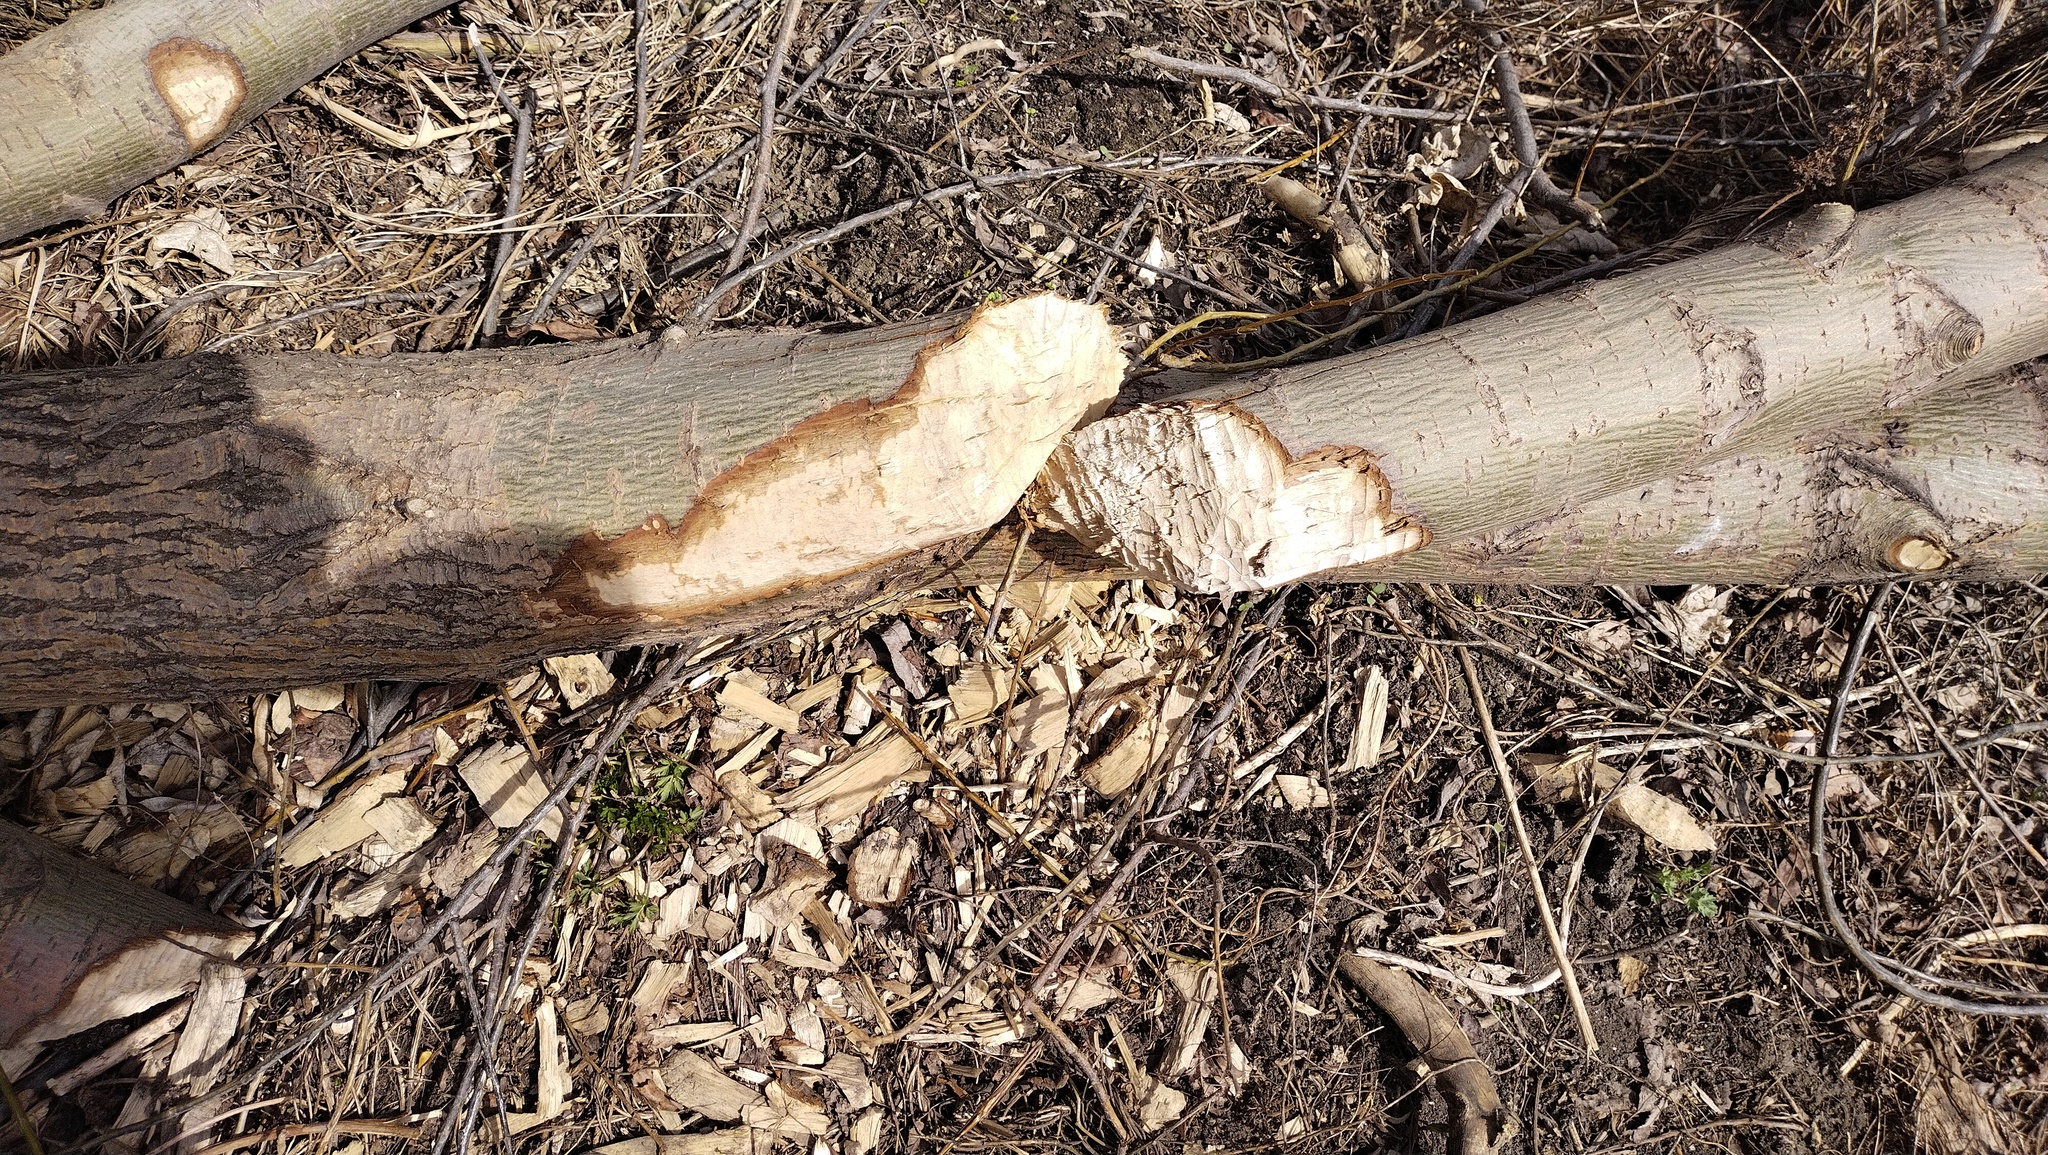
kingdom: Animalia
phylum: Chordata
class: Mammalia
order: Rodentia
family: Castoridae
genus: Castor
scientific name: Castor fiber
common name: Eurasian beaver
